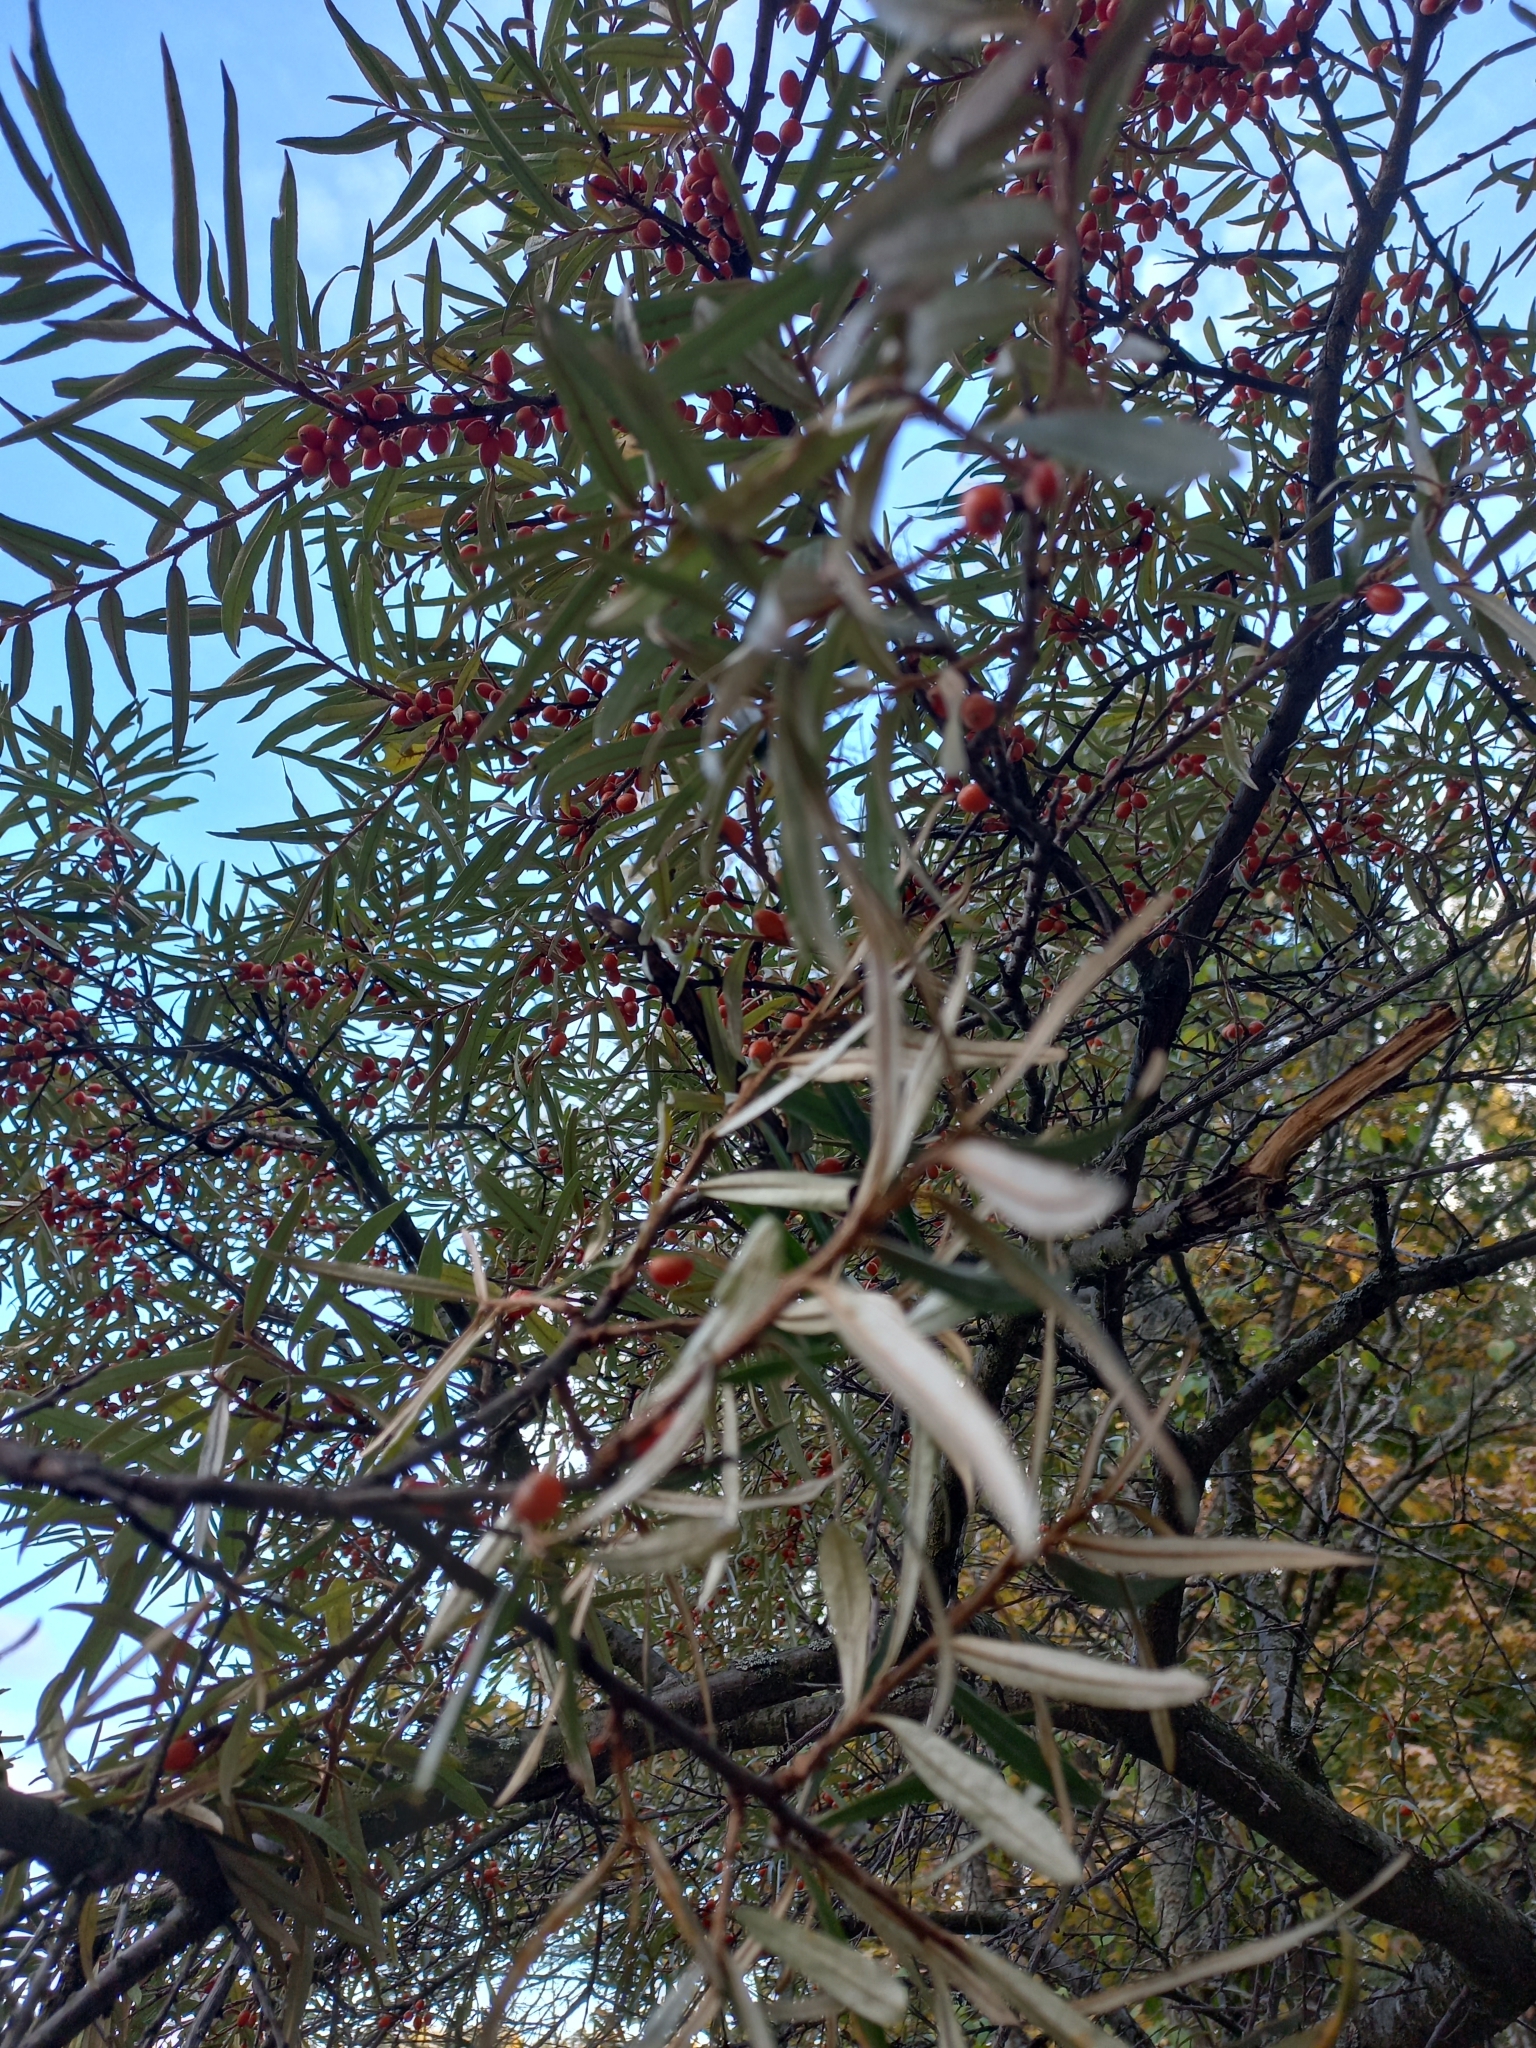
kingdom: Plantae
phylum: Tracheophyta
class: Magnoliopsida
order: Rosales
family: Elaeagnaceae
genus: Hippophae
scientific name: Hippophae rhamnoides
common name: Sea-buckthorn
